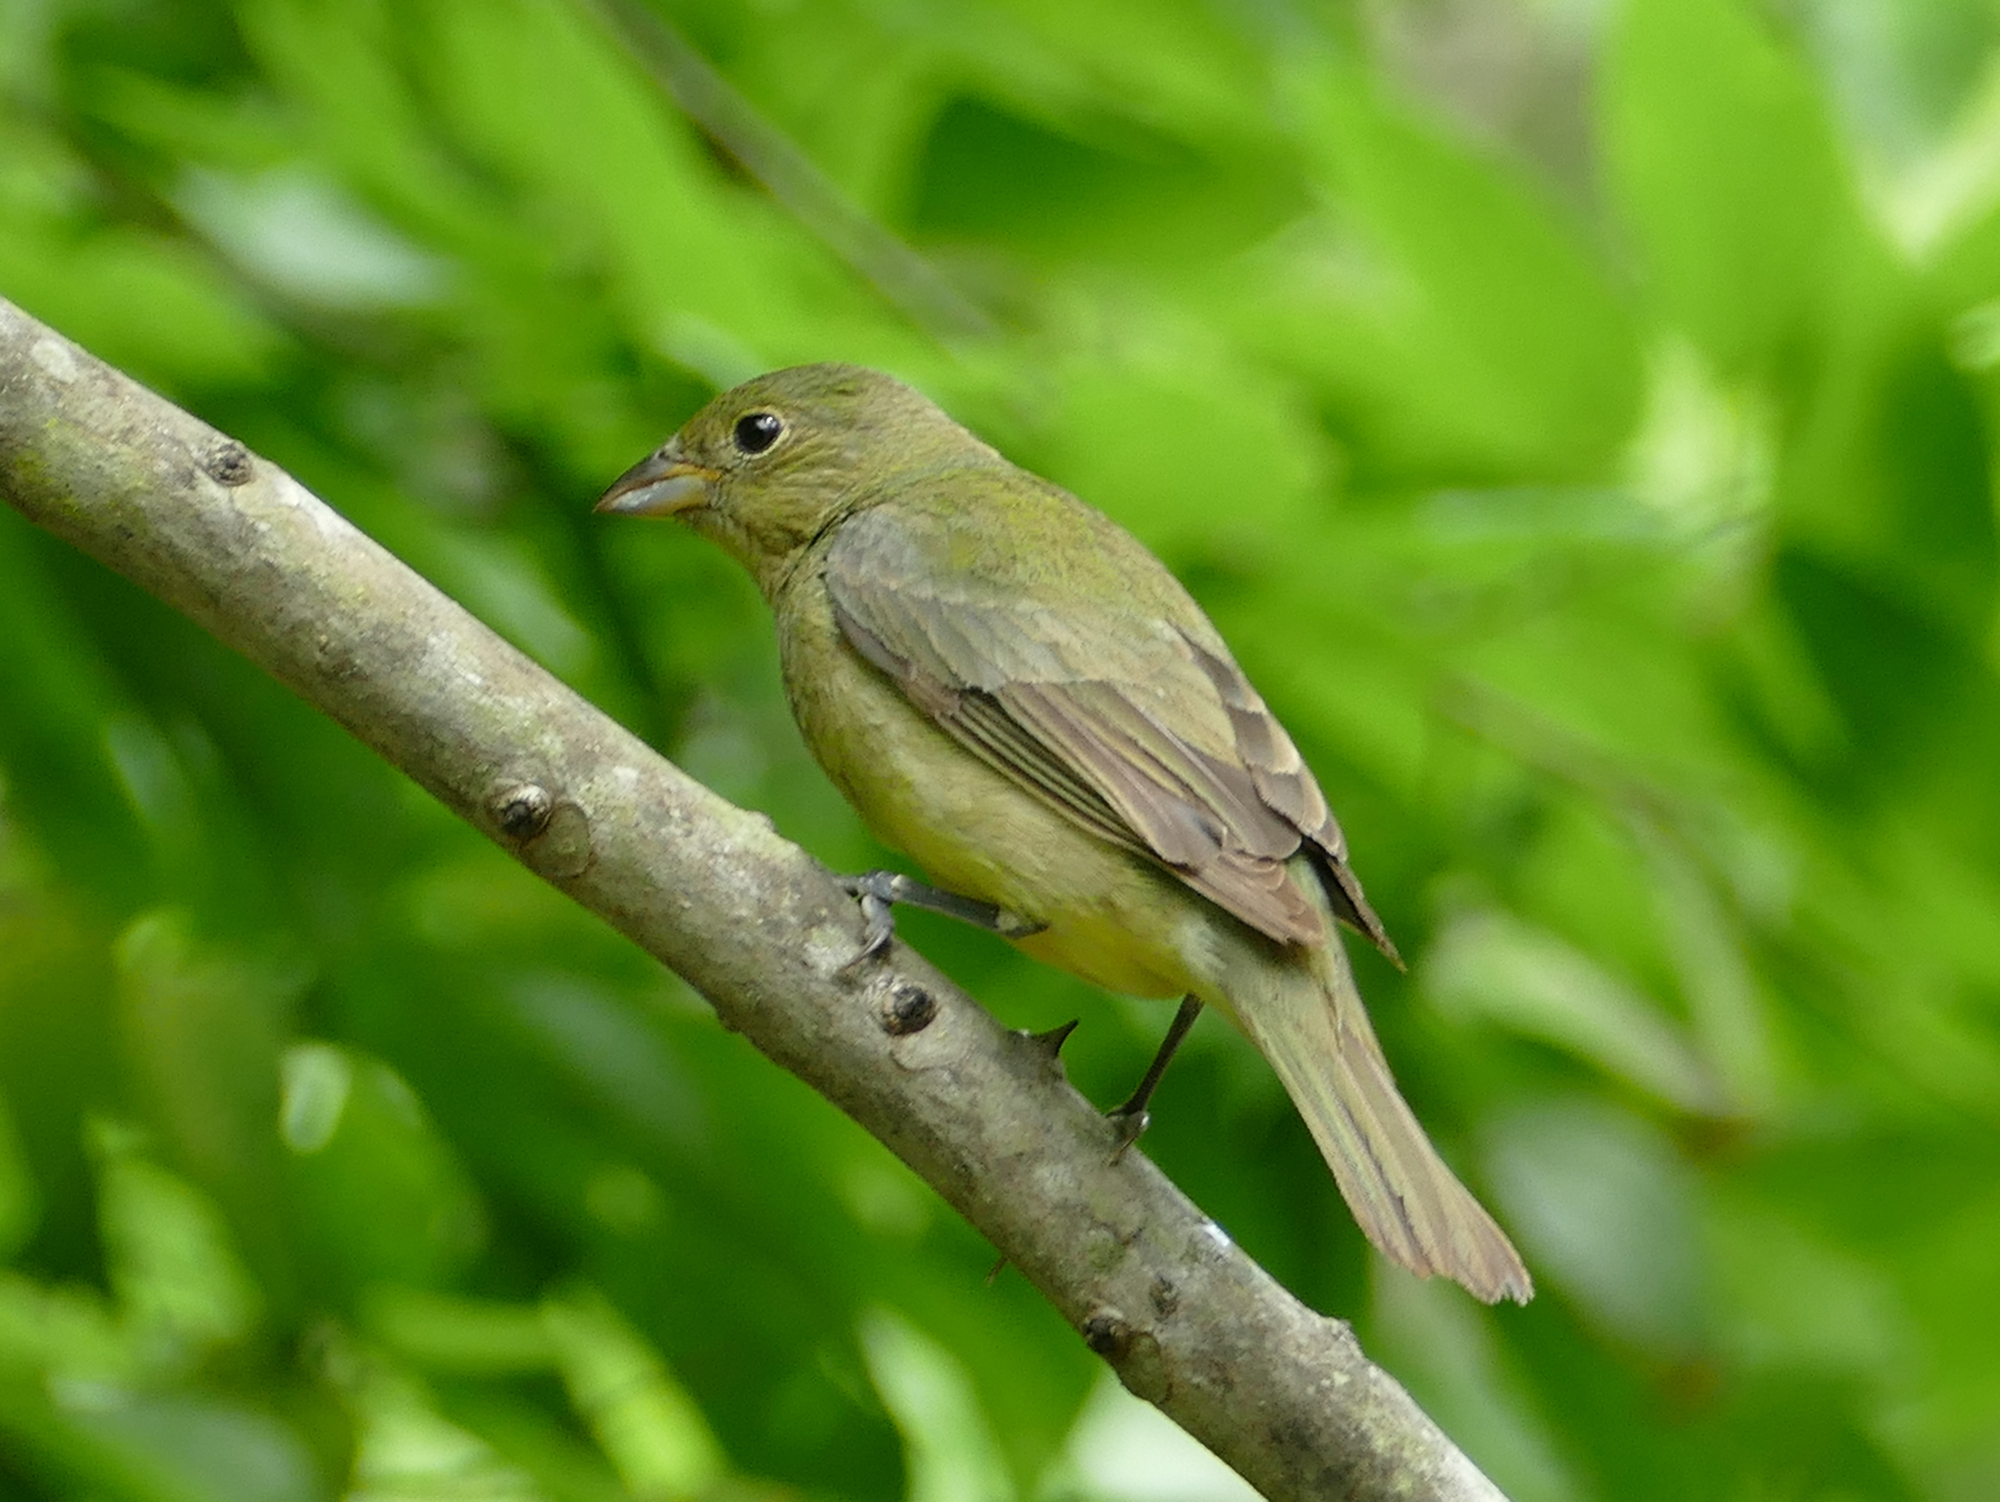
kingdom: Animalia
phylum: Chordata
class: Aves
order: Passeriformes
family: Cardinalidae
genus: Passerina
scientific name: Passerina ciris
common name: Painted bunting
